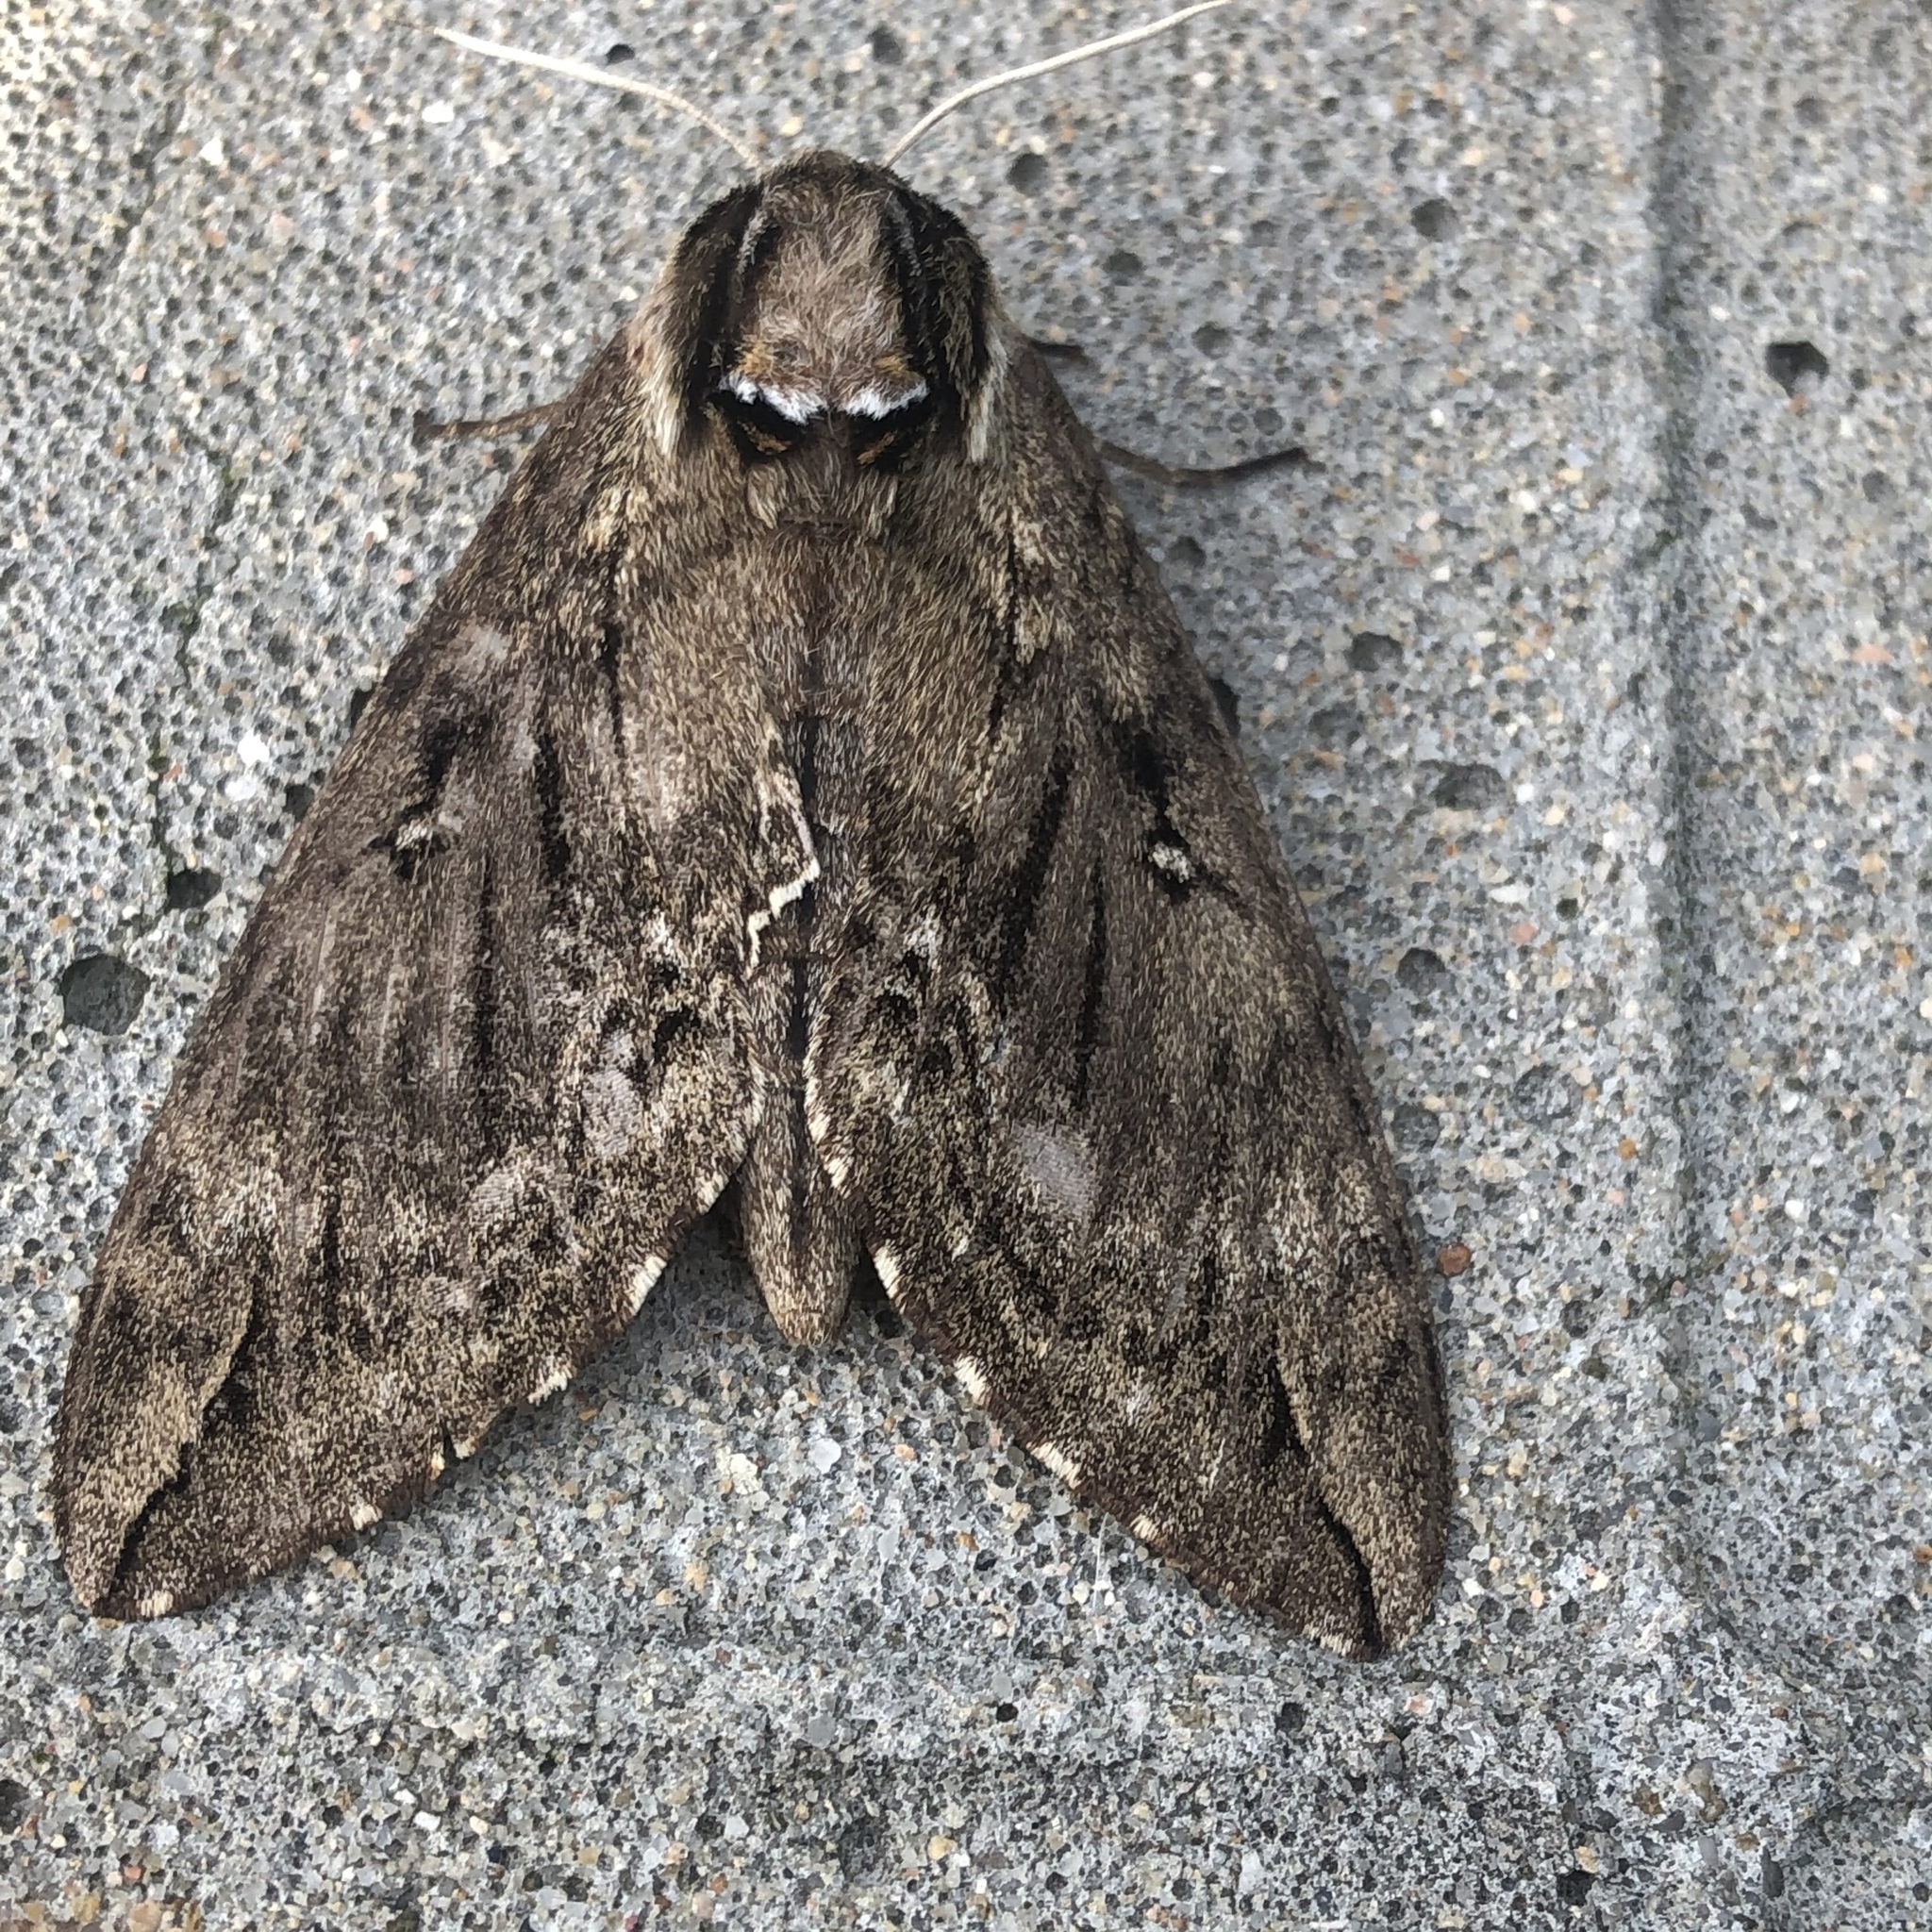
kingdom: Animalia
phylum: Arthropoda
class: Insecta
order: Lepidoptera
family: Sphingidae
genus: Ceratomia
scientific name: Ceratomia catalpae
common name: Catalpa hornworm
